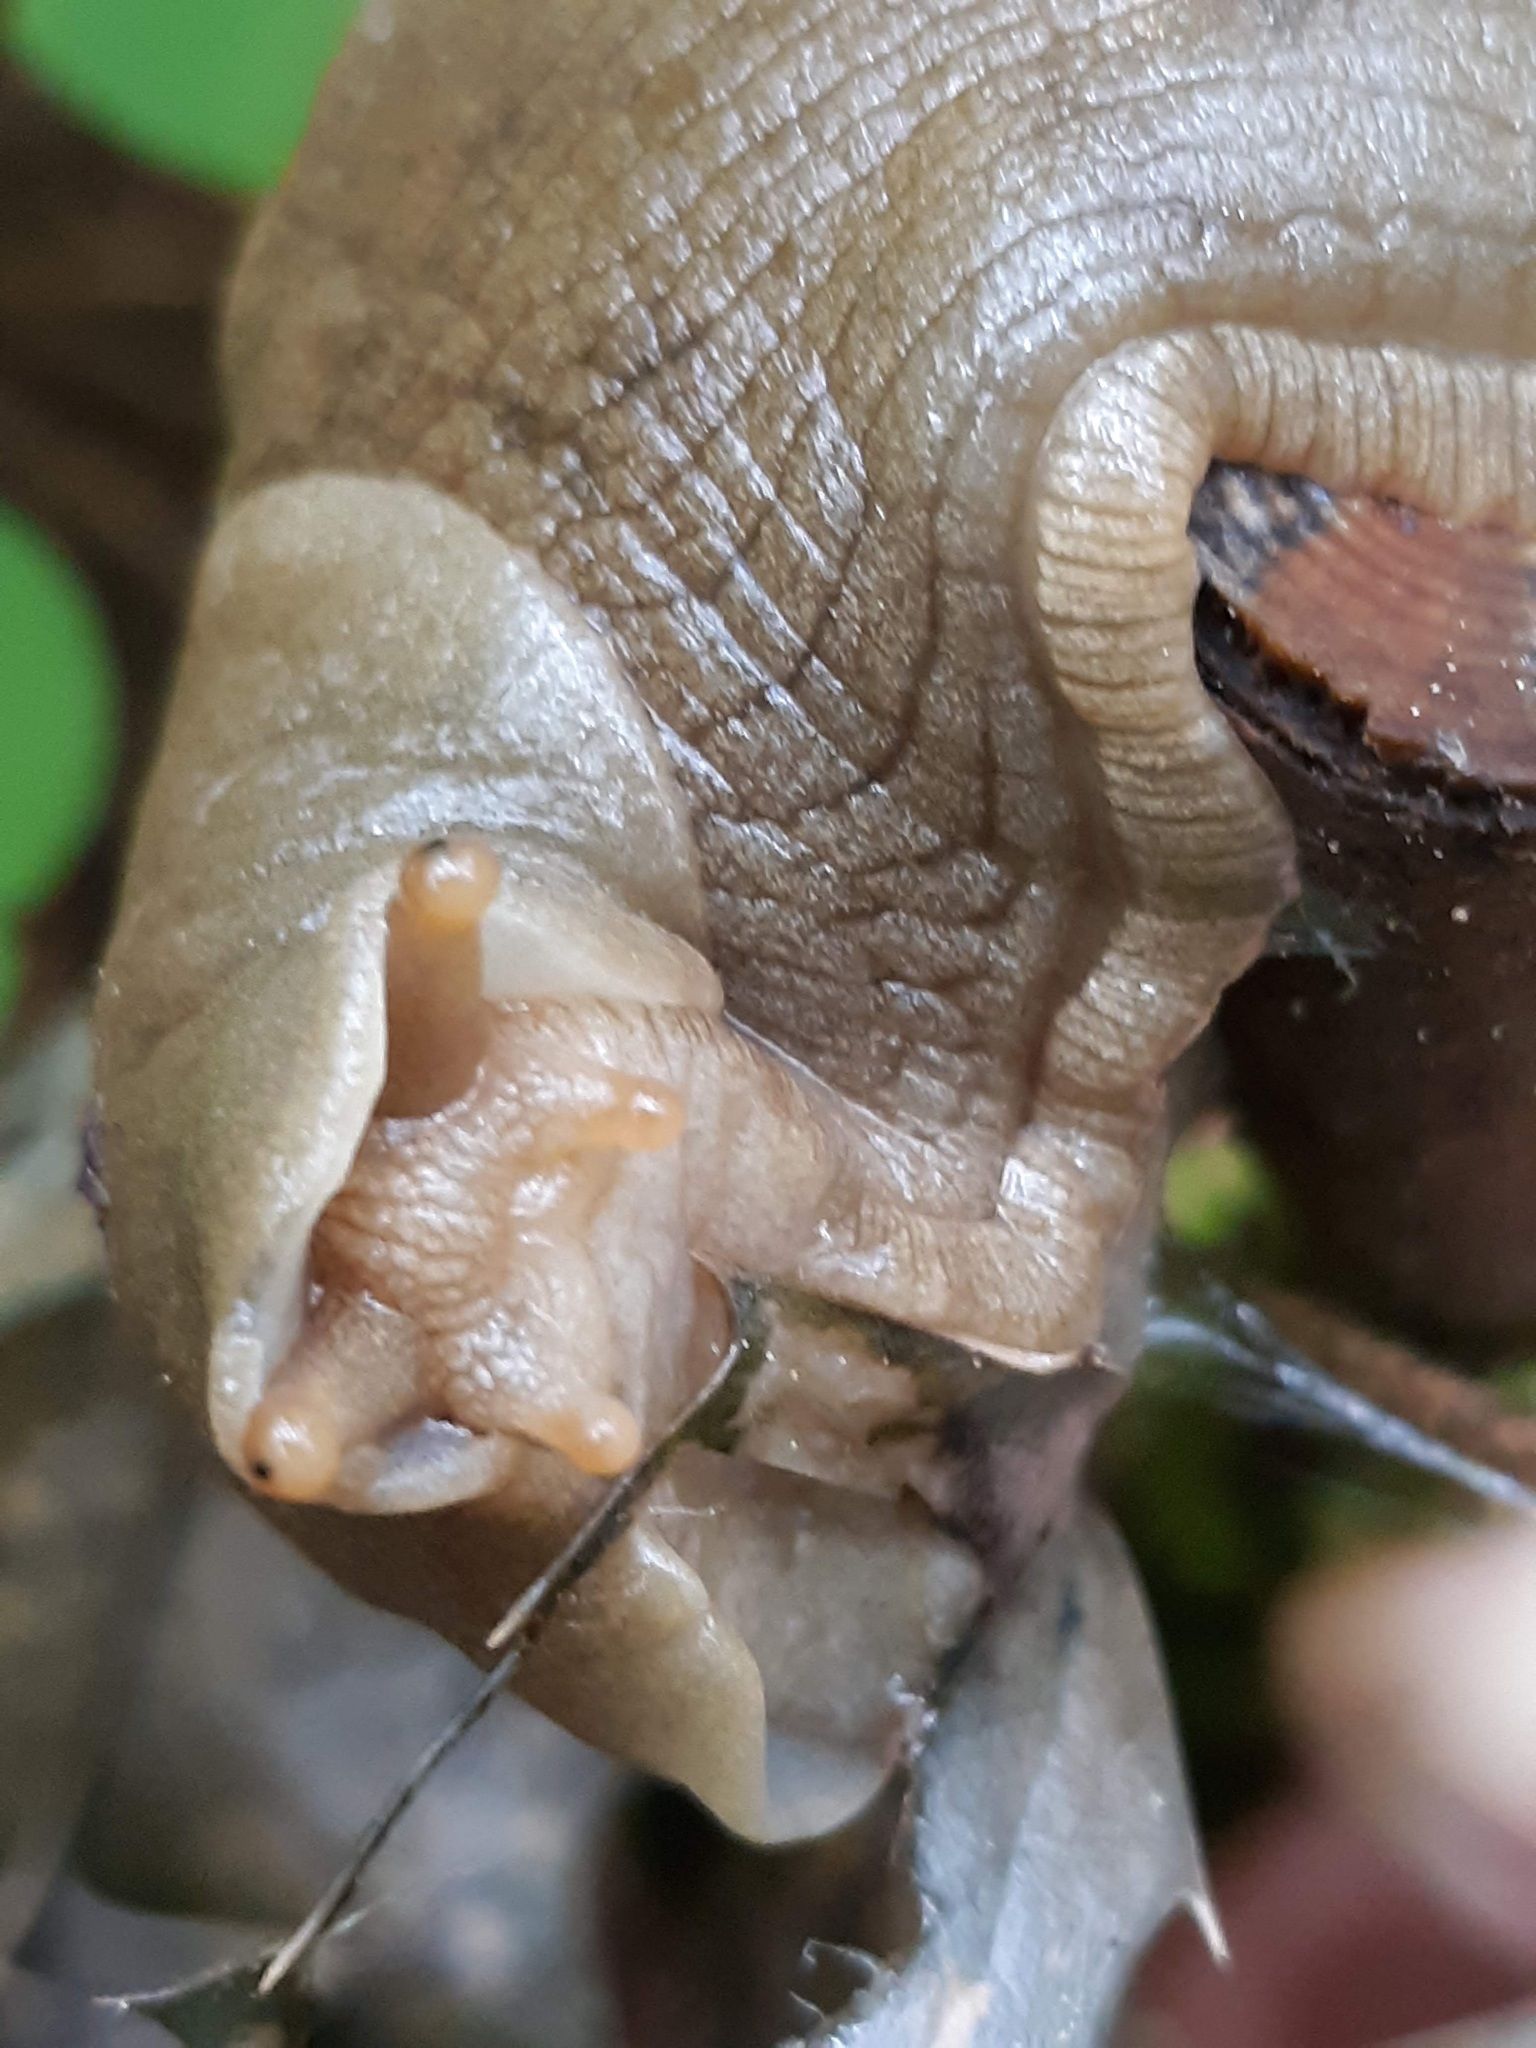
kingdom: Animalia
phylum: Mollusca
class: Gastropoda
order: Stylommatophora
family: Ariolimacidae
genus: Ariolimax
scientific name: Ariolimax columbianus
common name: Pacific banana slug
